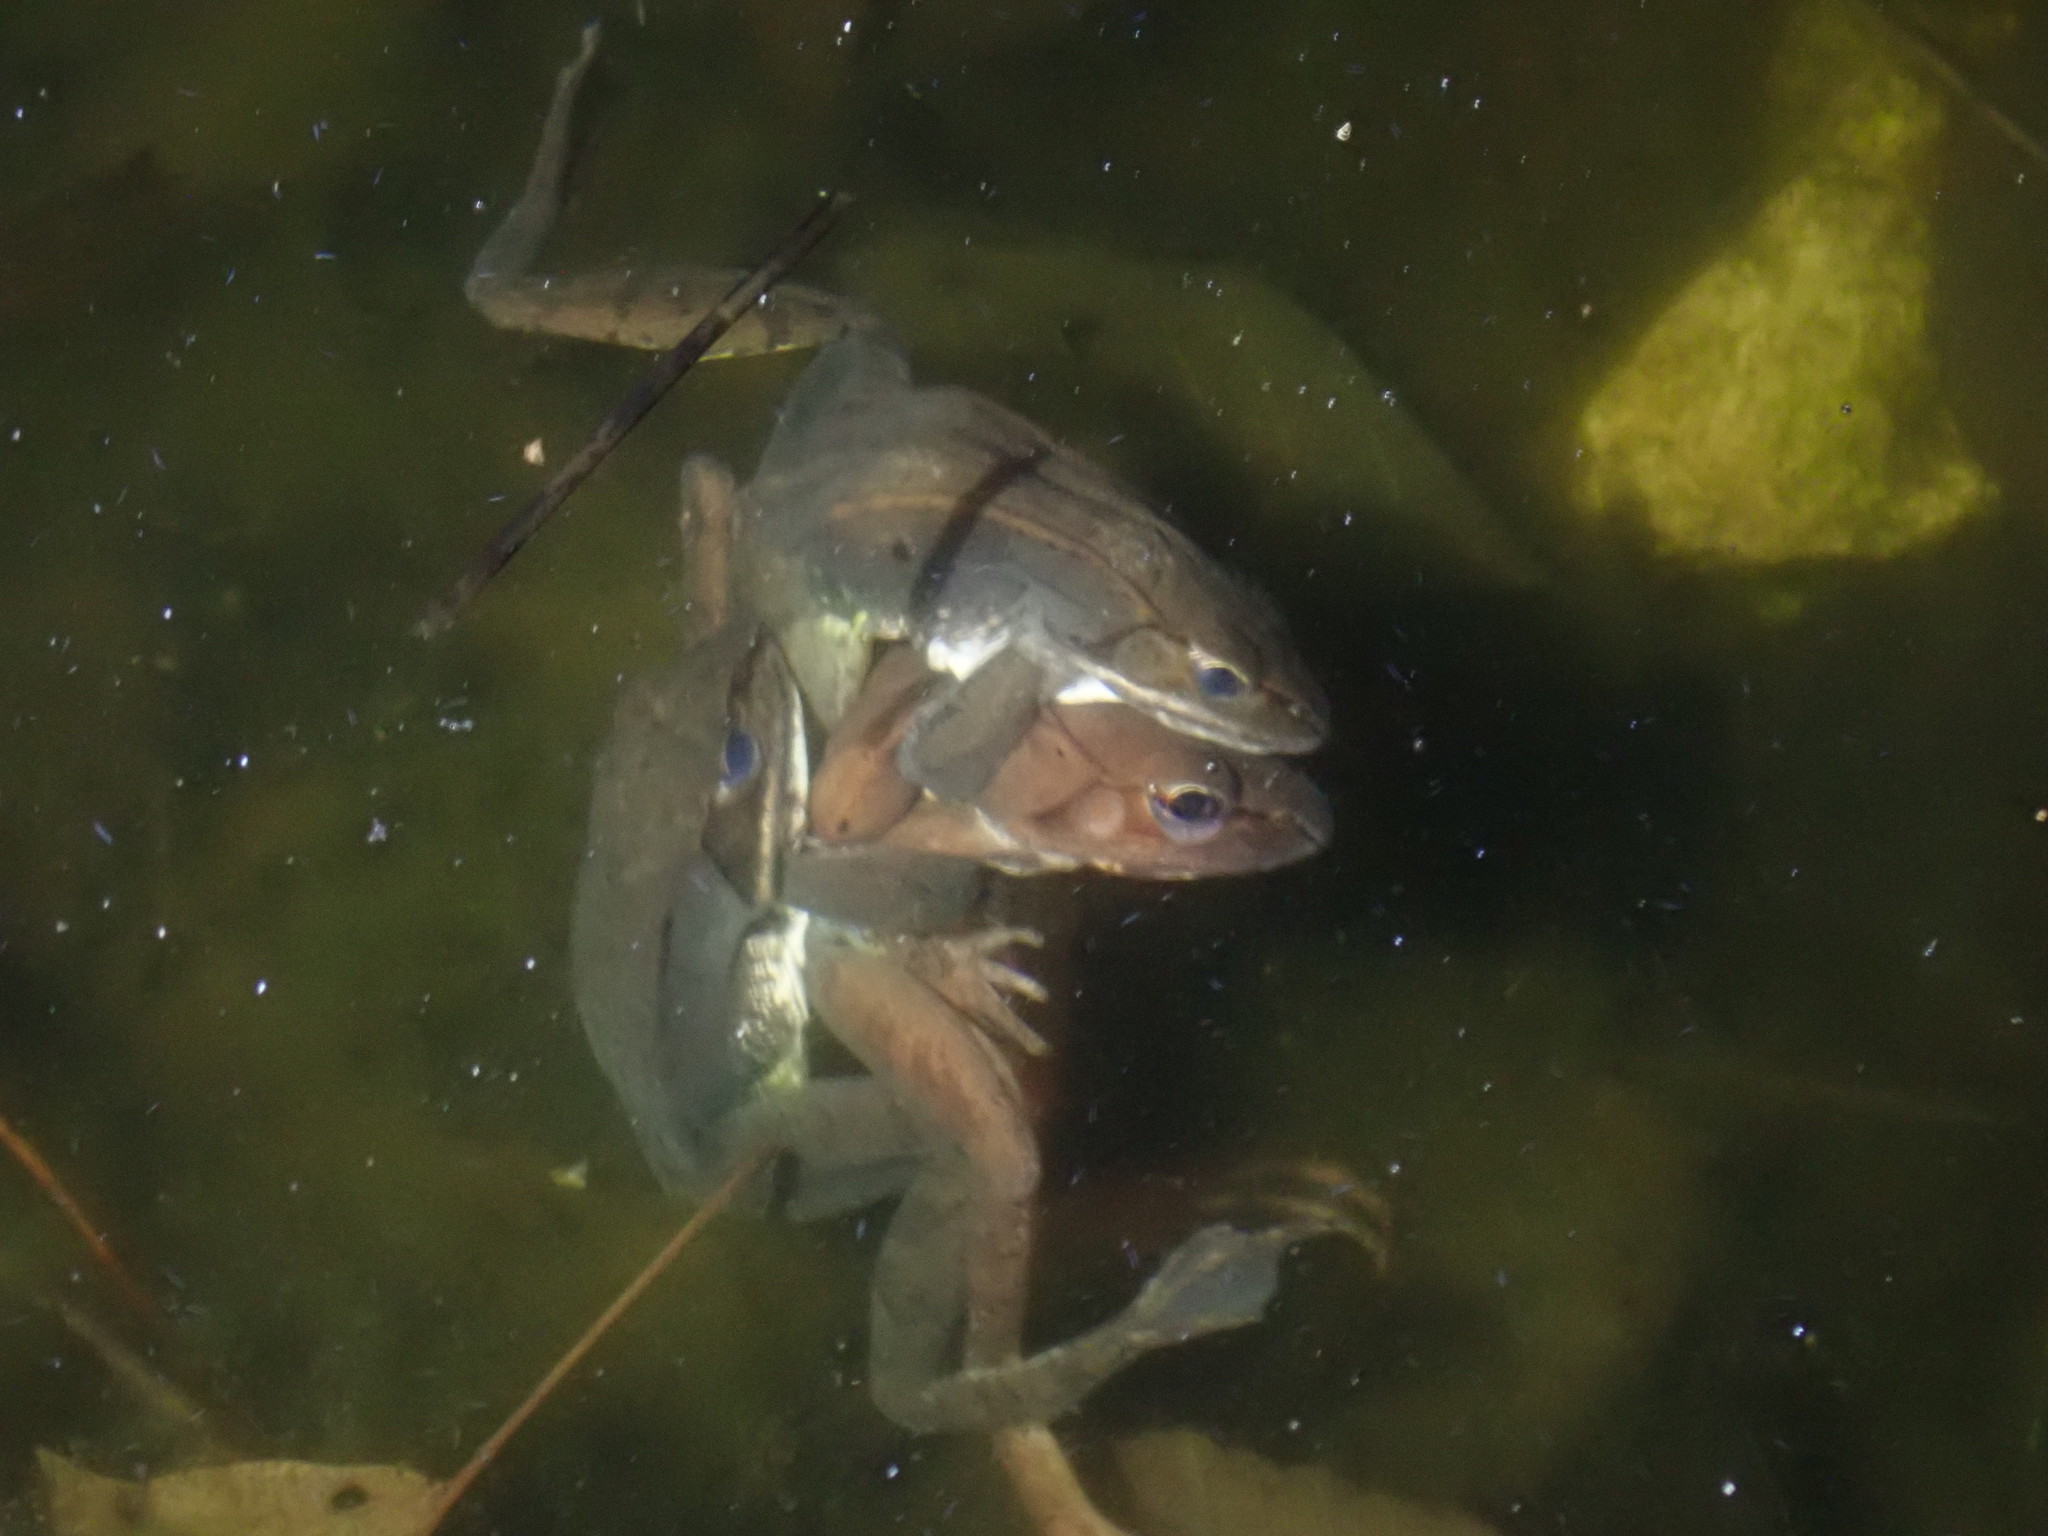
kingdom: Animalia
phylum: Chordata
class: Amphibia
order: Anura
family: Ranidae
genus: Lithobates
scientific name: Lithobates sylvaticus
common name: Wood frog
